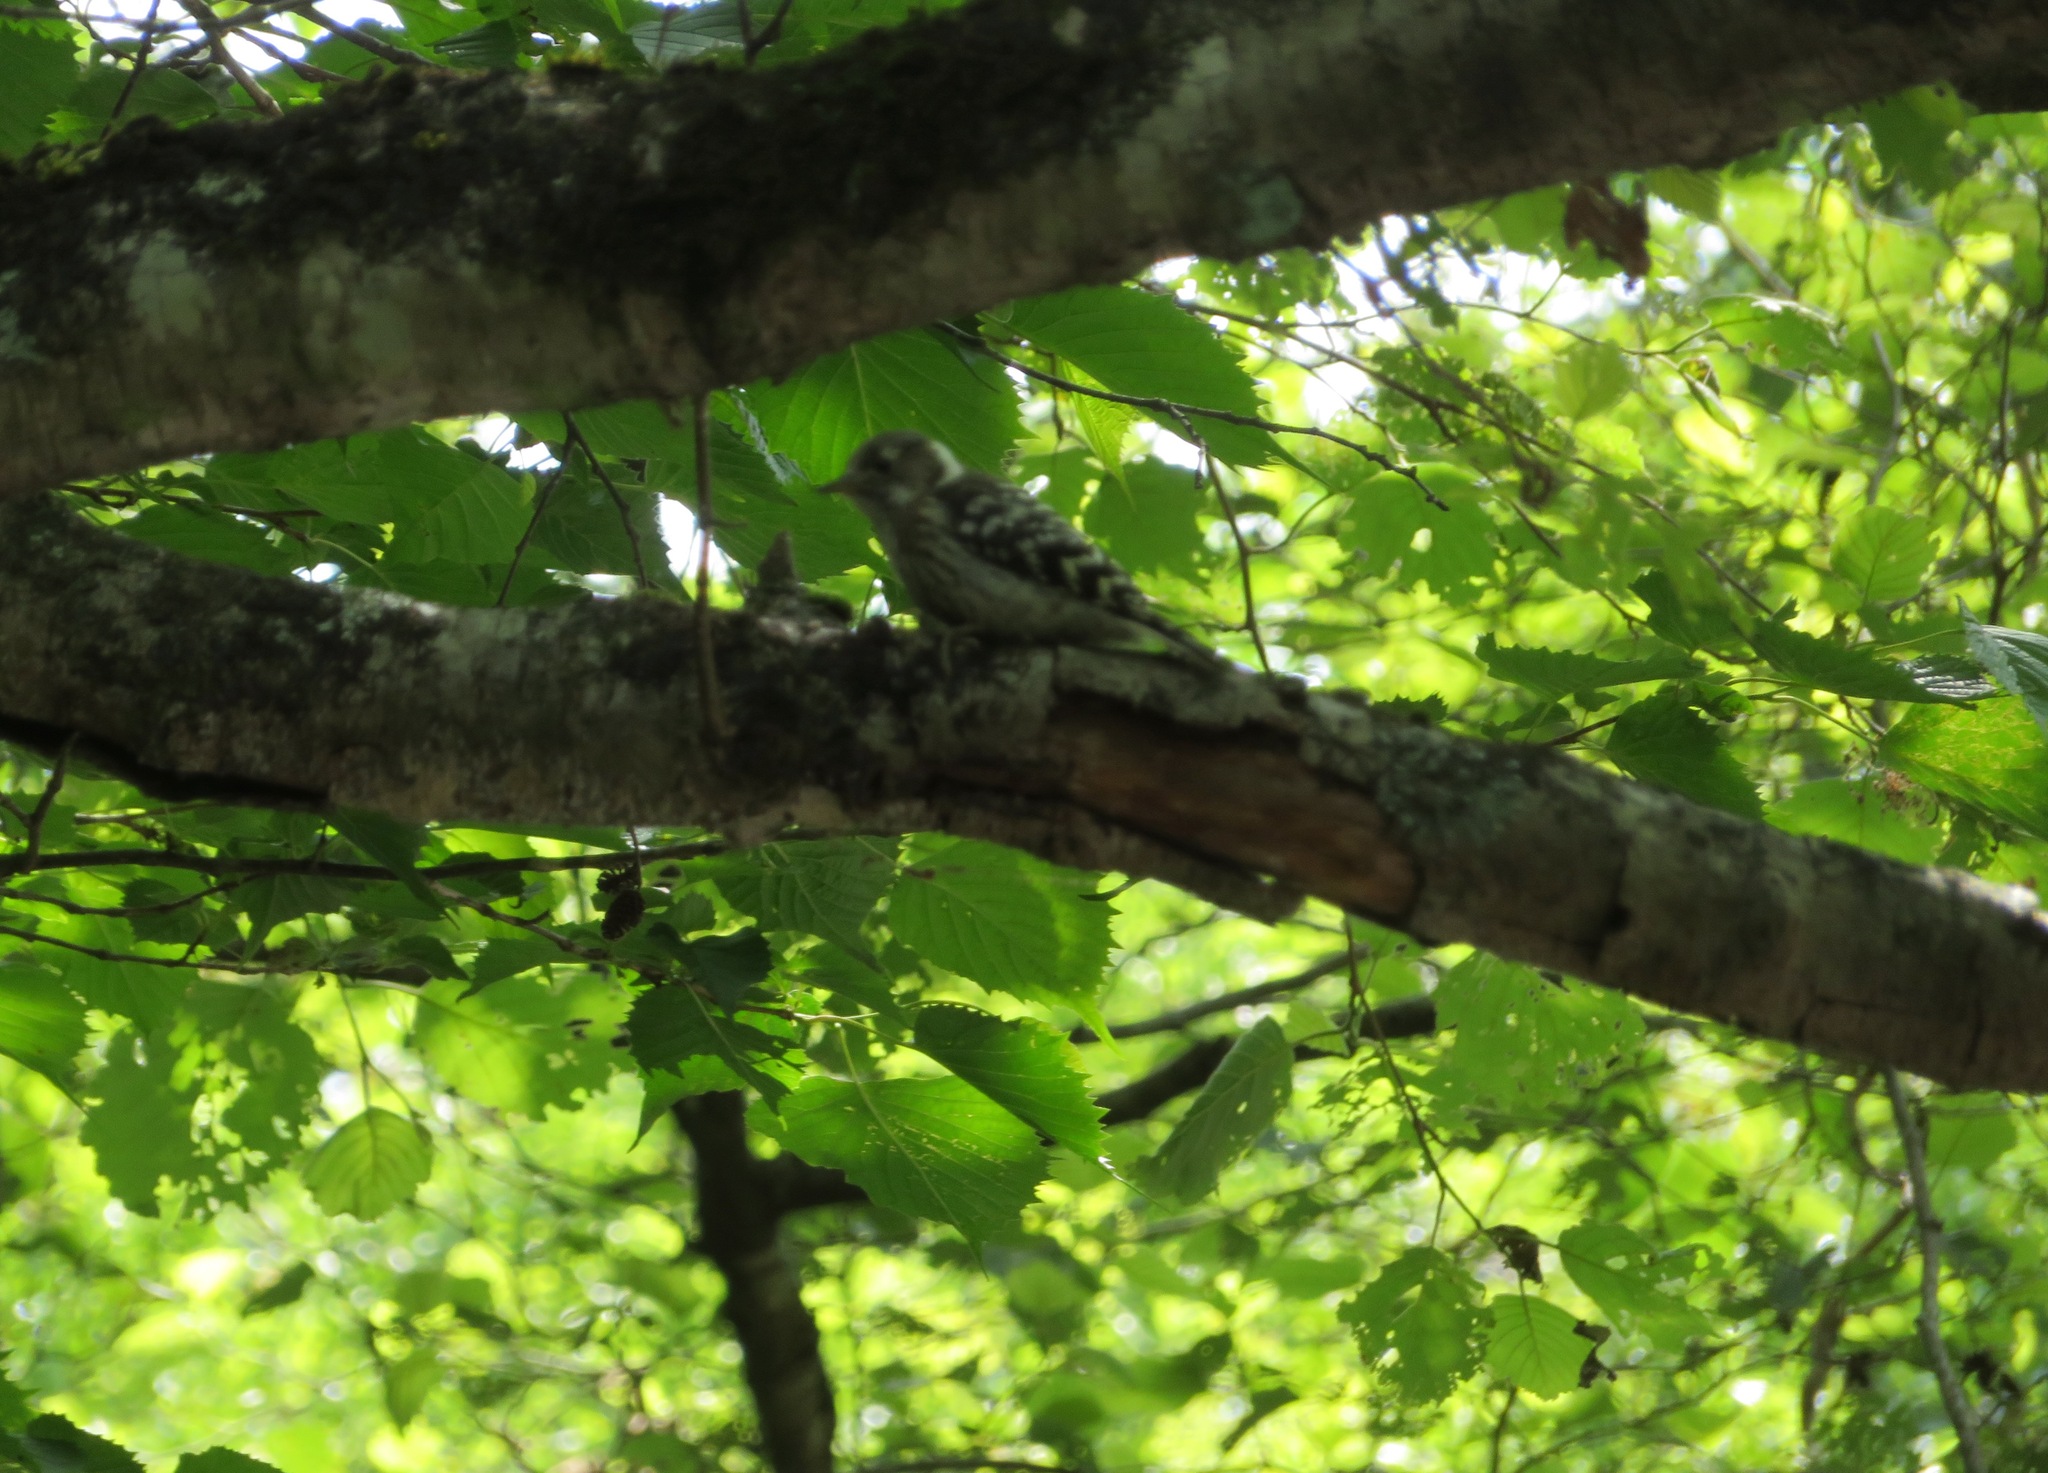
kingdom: Animalia
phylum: Chordata
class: Aves
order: Piciformes
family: Picidae
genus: Yungipicus
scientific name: Yungipicus kizuki
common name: Japanese pygmy woodpecker
